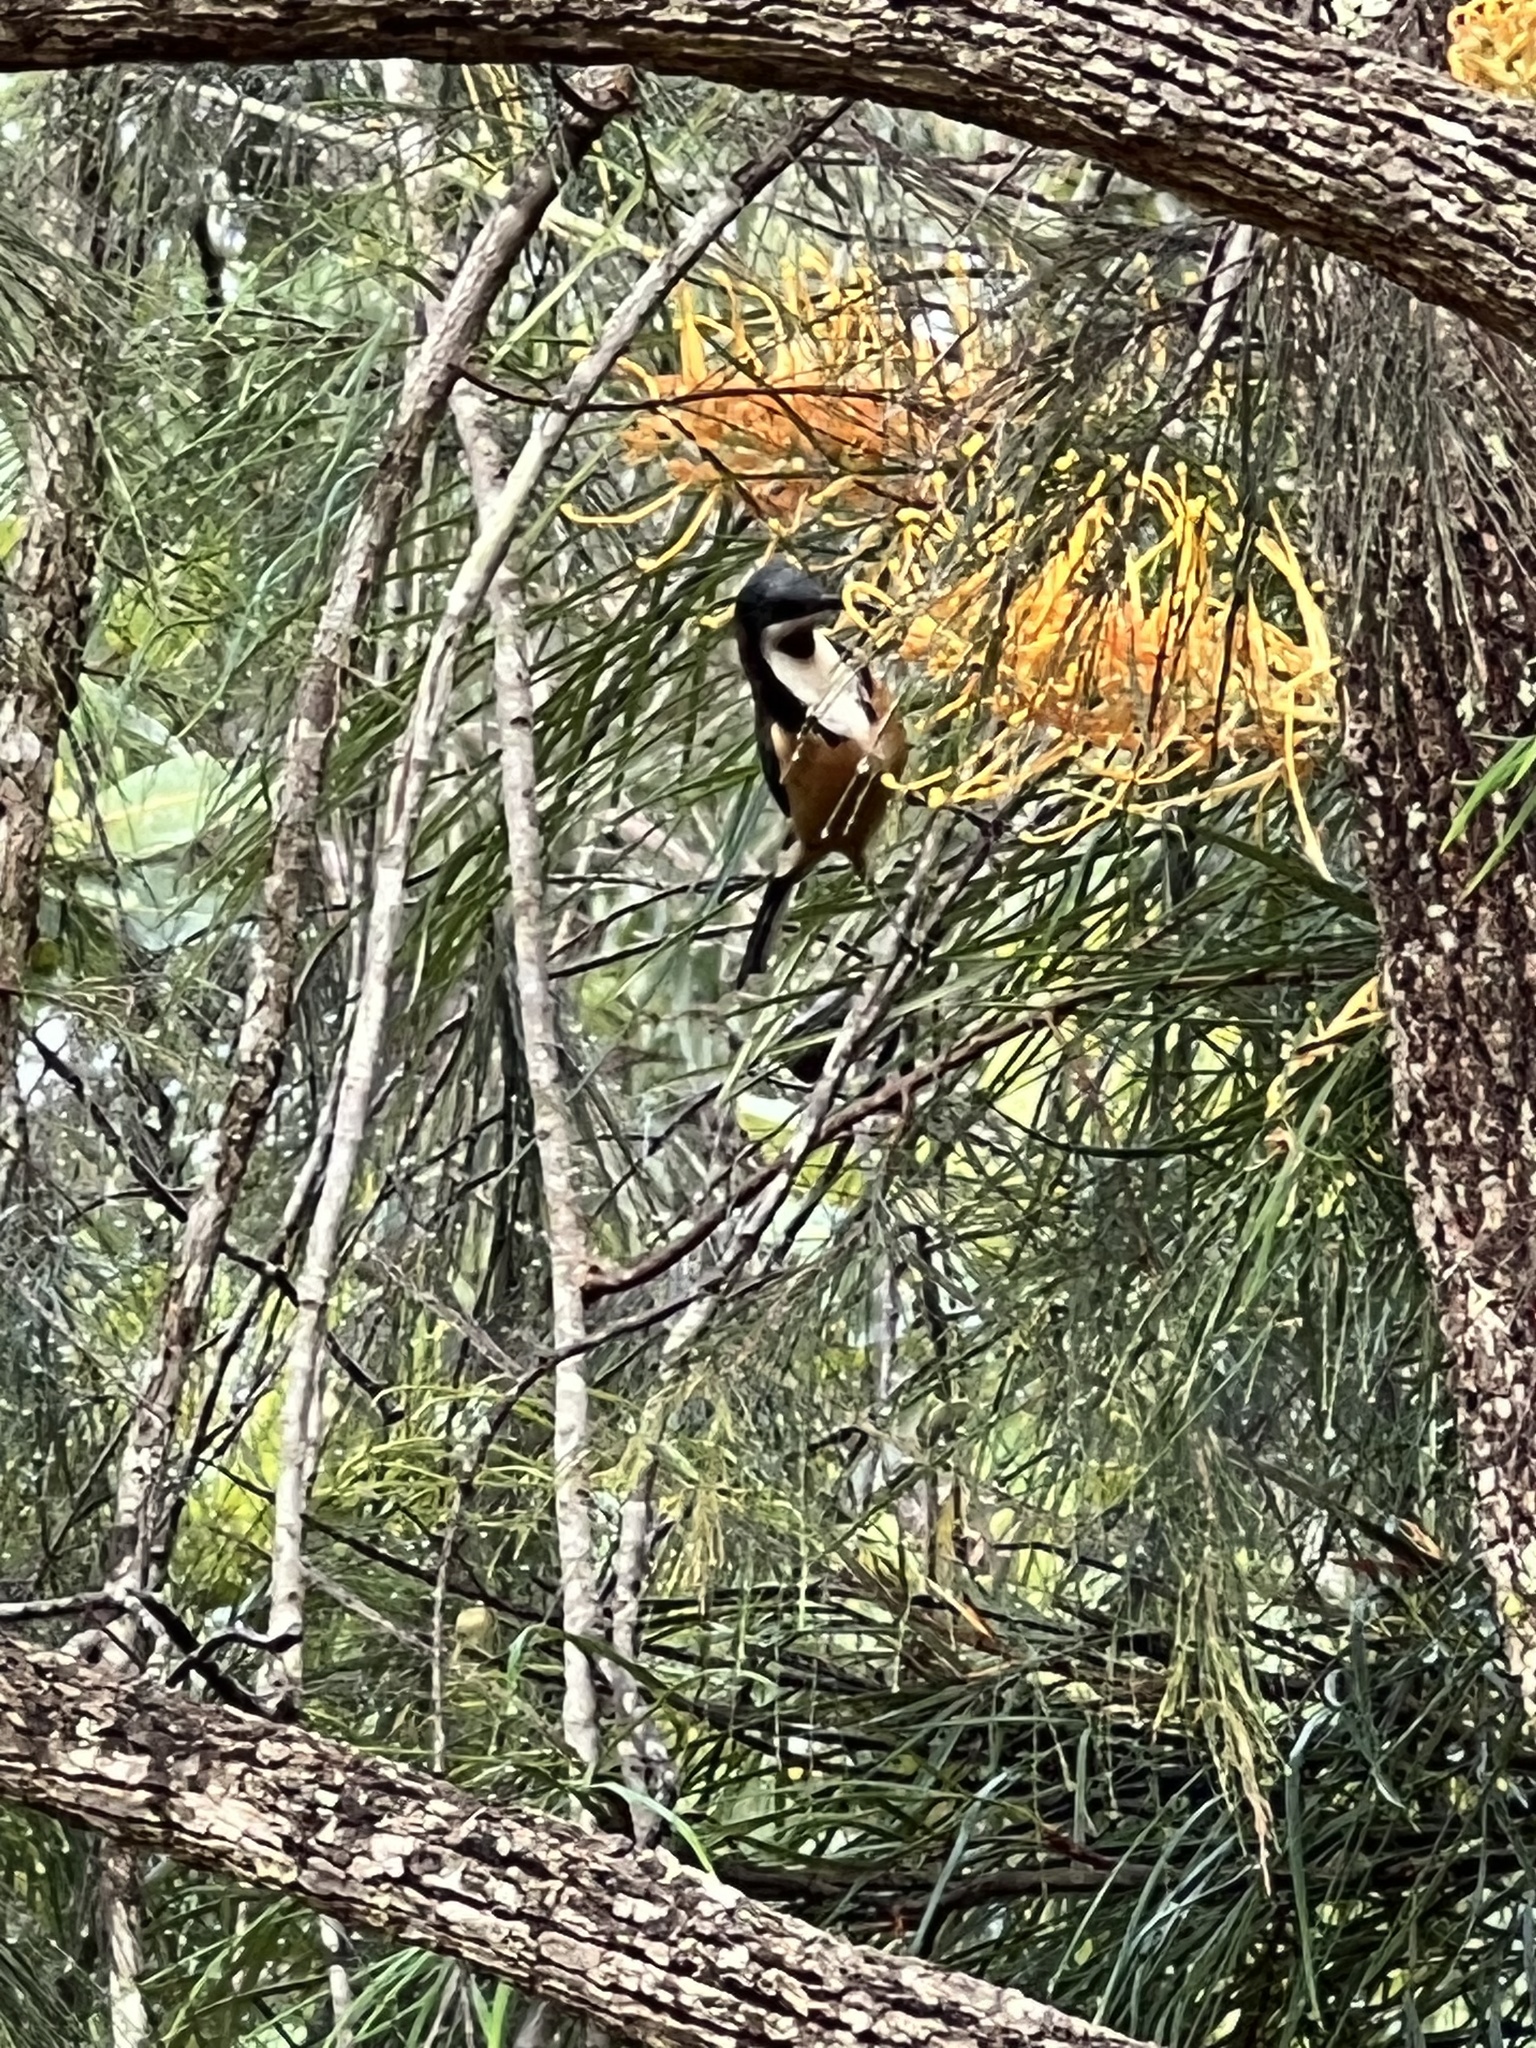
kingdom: Animalia
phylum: Chordata
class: Aves
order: Passeriformes
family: Meliphagidae
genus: Acanthorhynchus
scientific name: Acanthorhynchus tenuirostris
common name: Eastern spinebill
